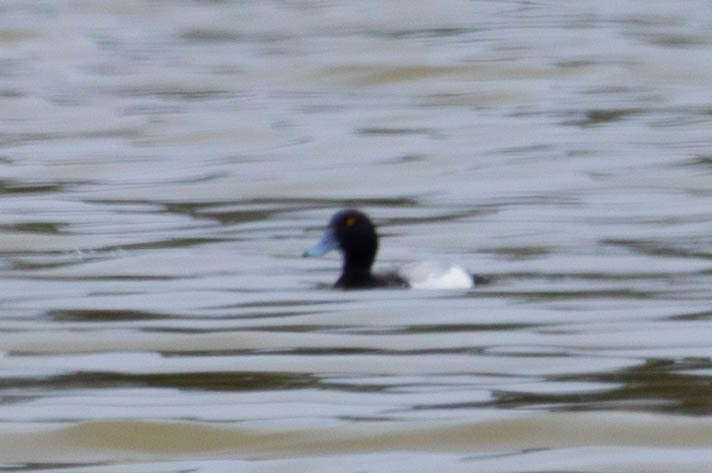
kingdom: Animalia
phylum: Chordata
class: Aves
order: Anseriformes
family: Anatidae
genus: Aythya
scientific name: Aythya marila
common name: Greater scaup
